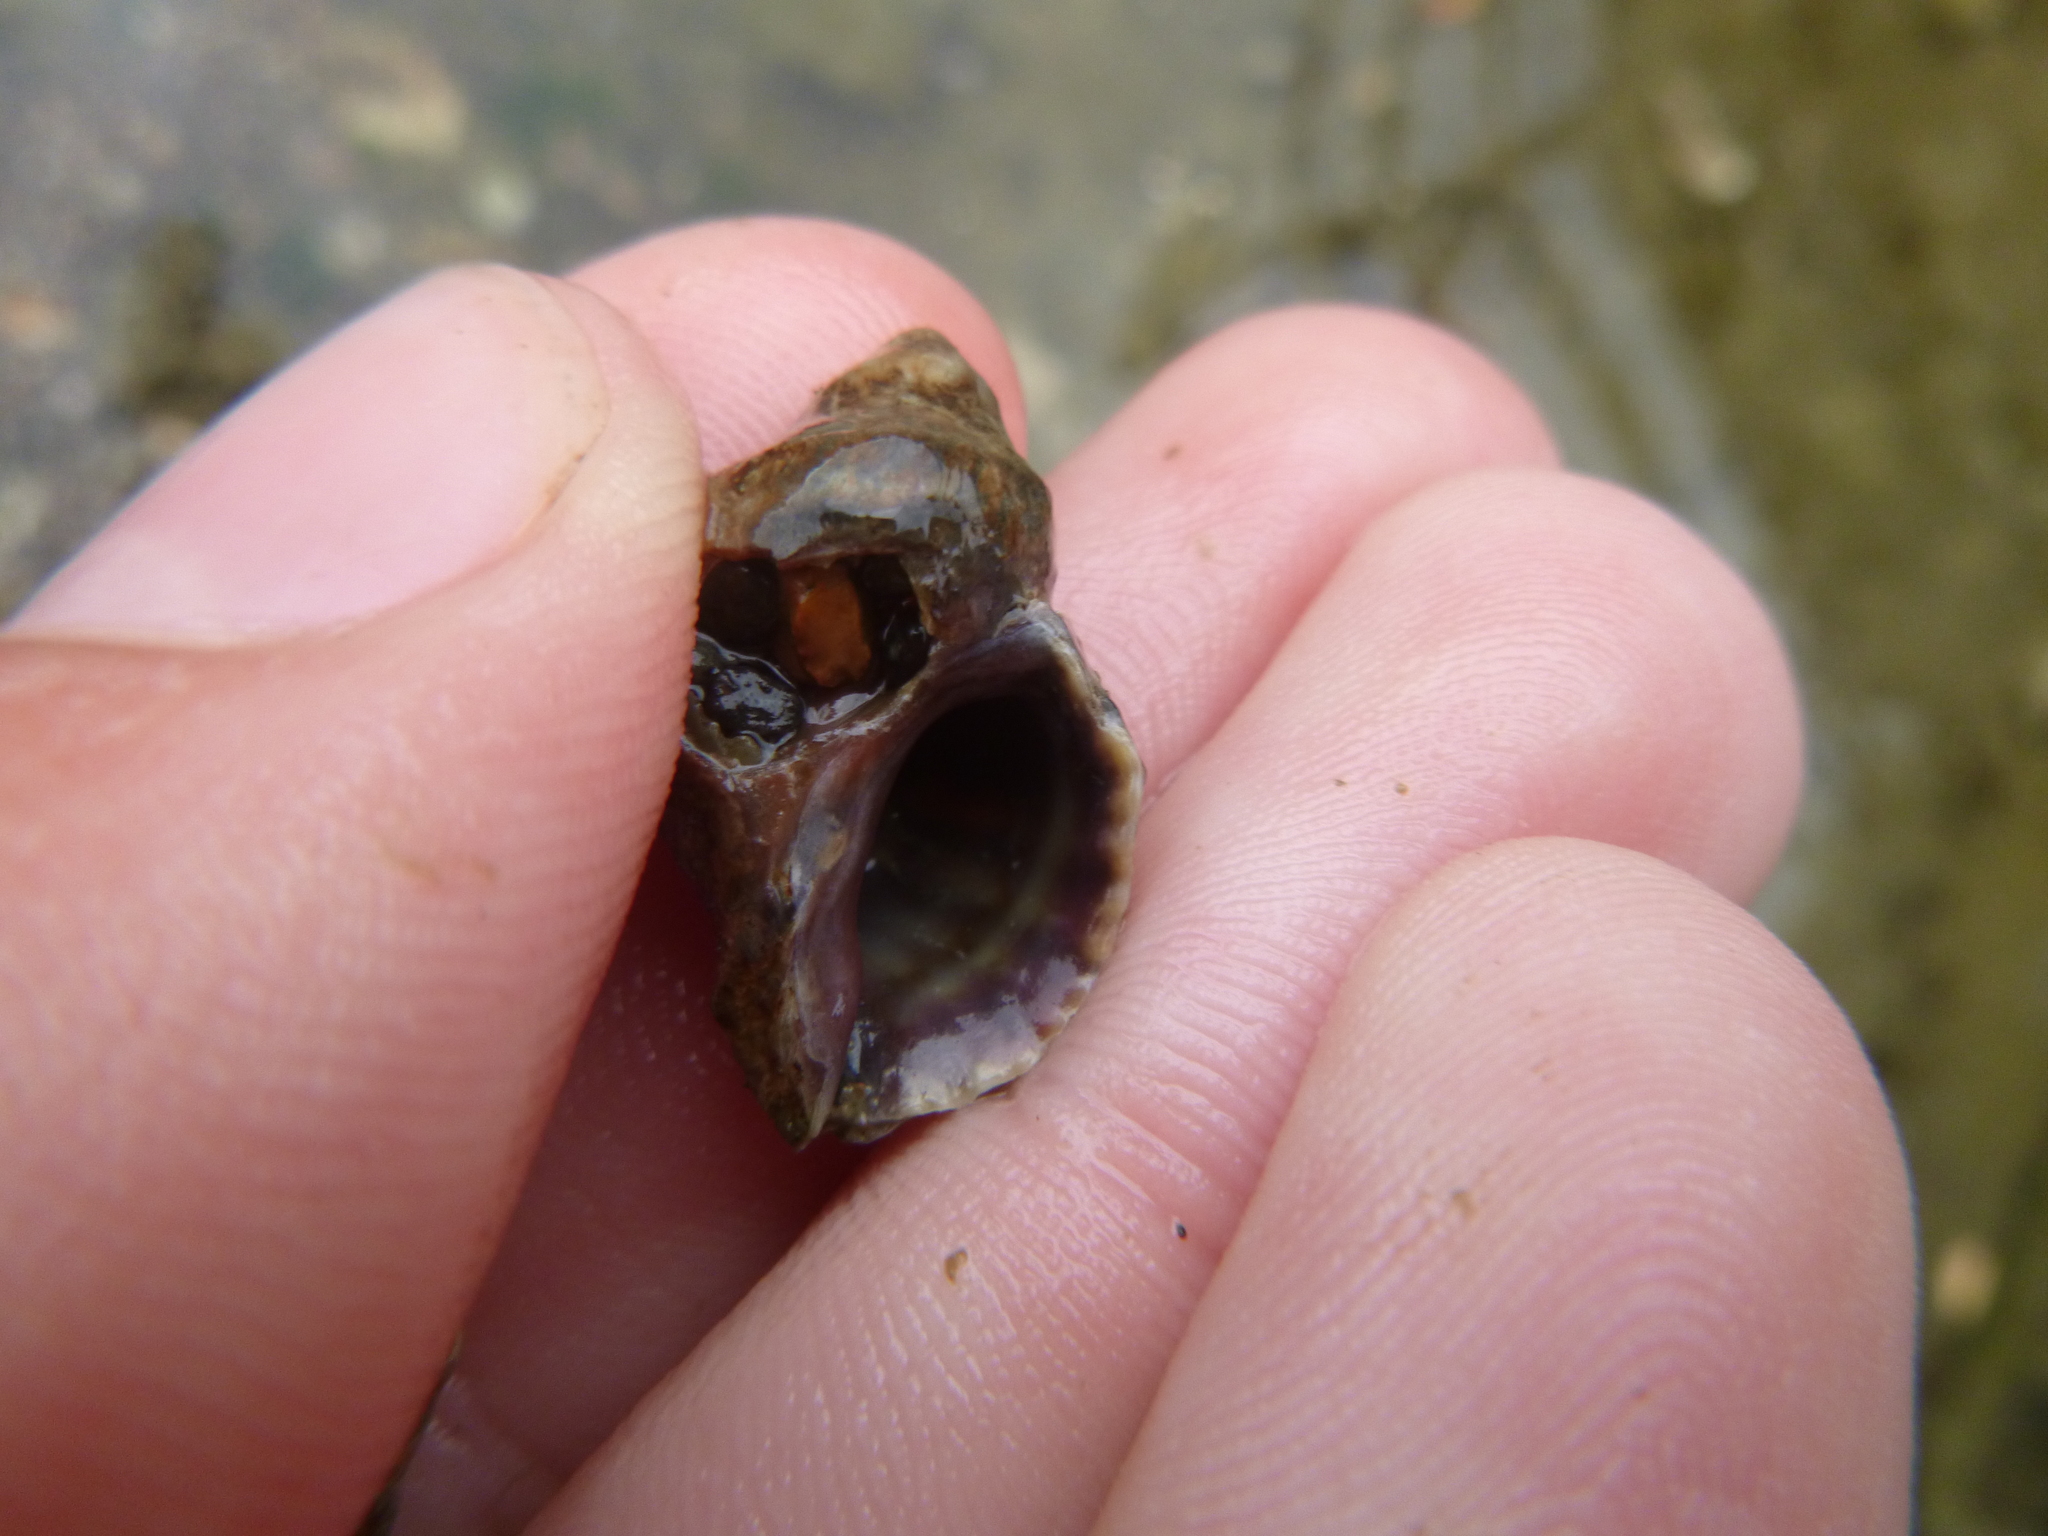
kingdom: Animalia
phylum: Mollusca
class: Gastropoda
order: Neogastropoda
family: Muricidae
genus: Haustrum
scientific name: Haustrum scobina
